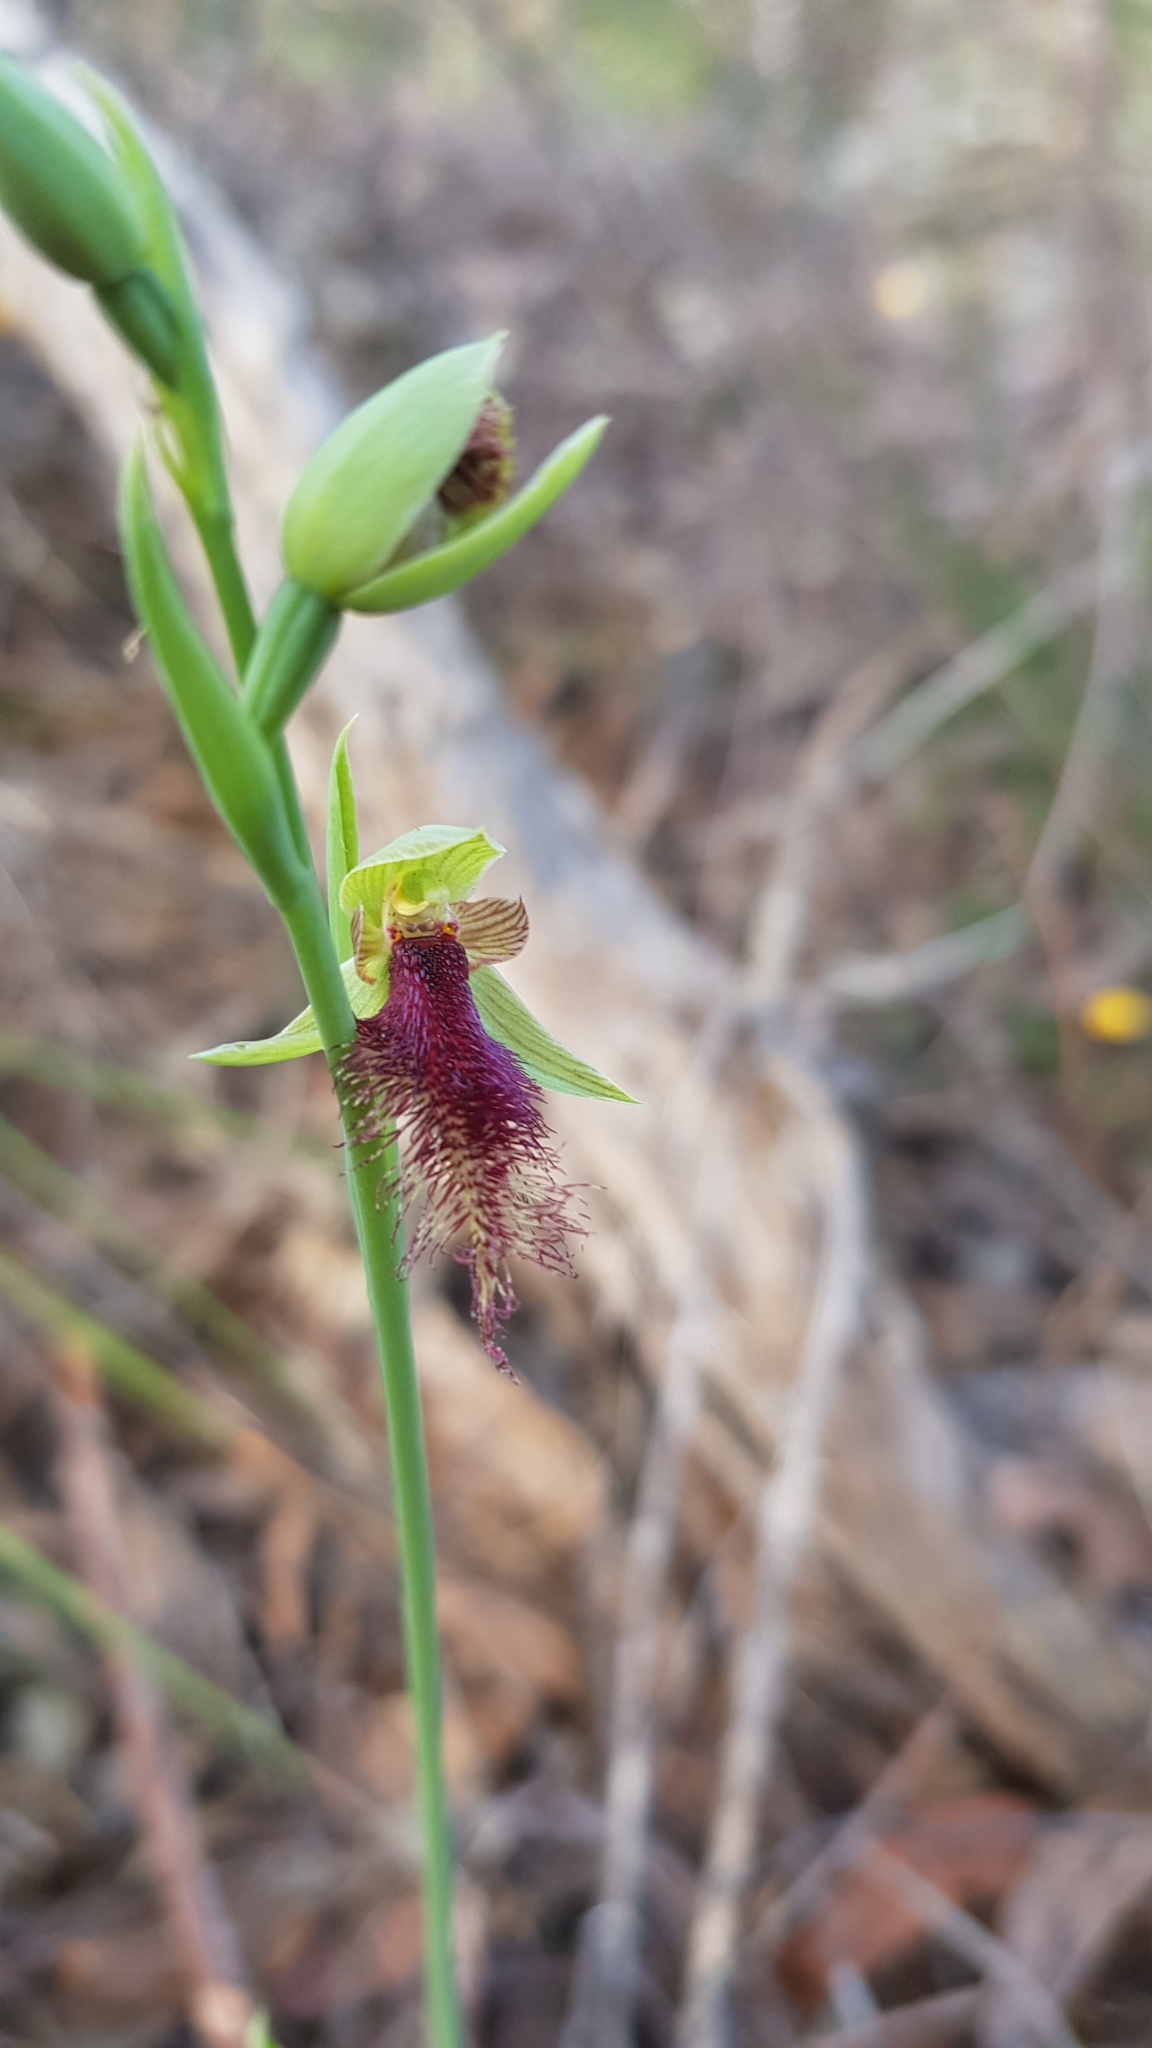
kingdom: Plantae
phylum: Tracheophyta
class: Liliopsida
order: Asparagales
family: Orchidaceae
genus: Calochilus
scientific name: Calochilus robertsonii
